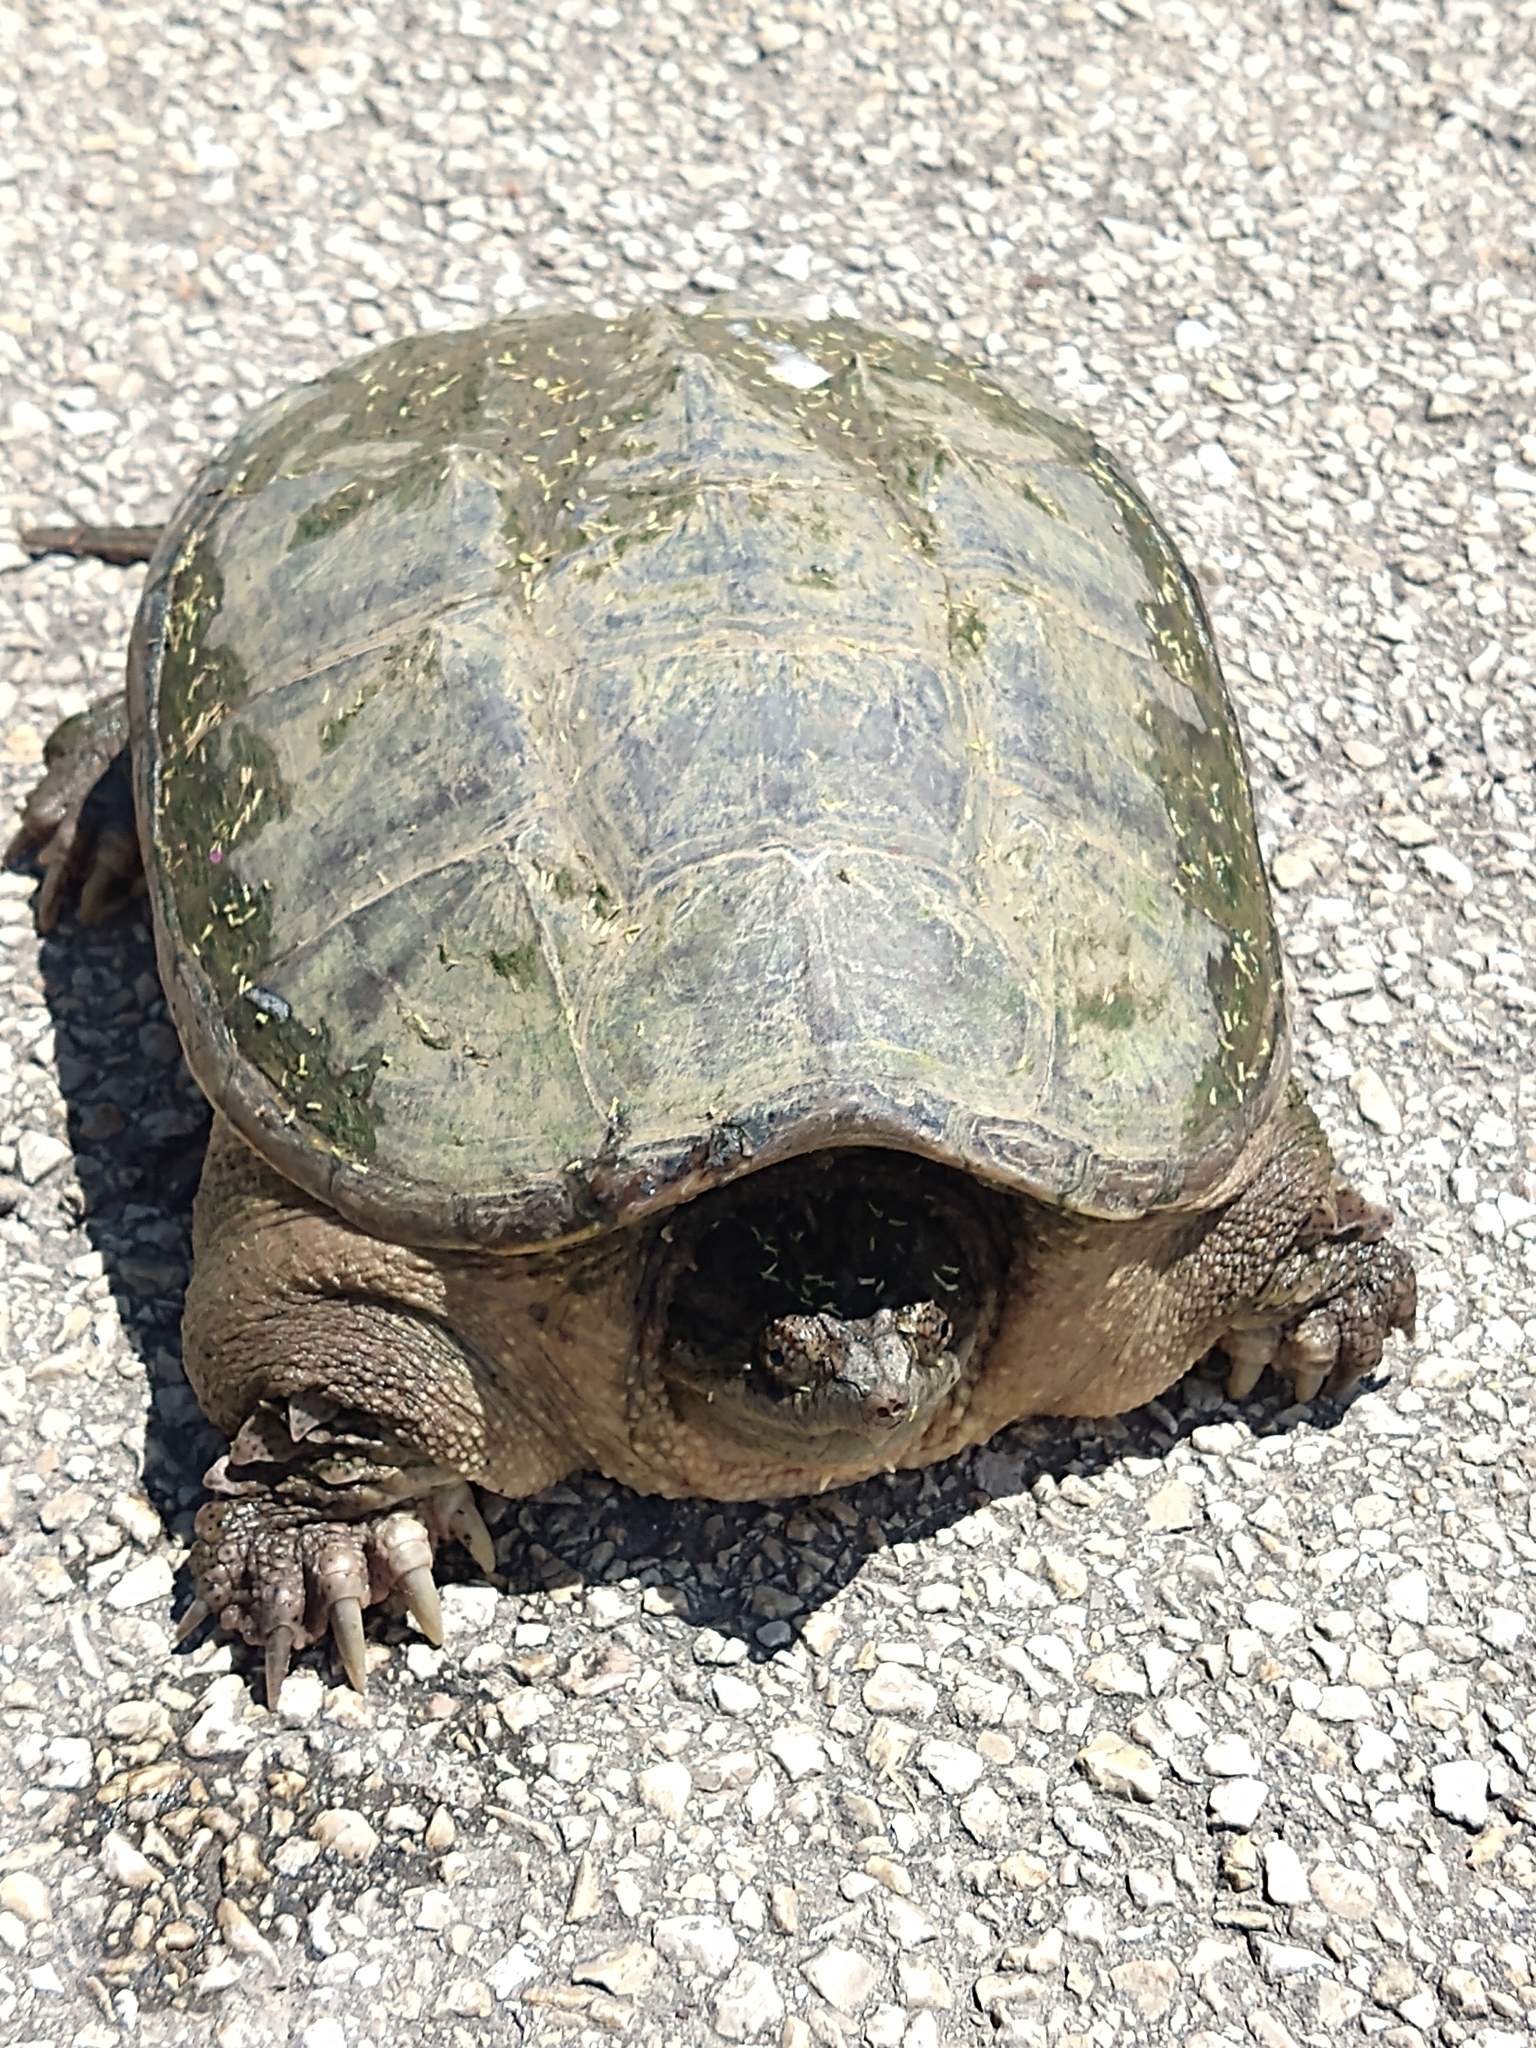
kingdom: Animalia
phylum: Chordata
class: Testudines
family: Chelydridae
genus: Chelydra
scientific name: Chelydra serpentina
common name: Common snapping turtle
